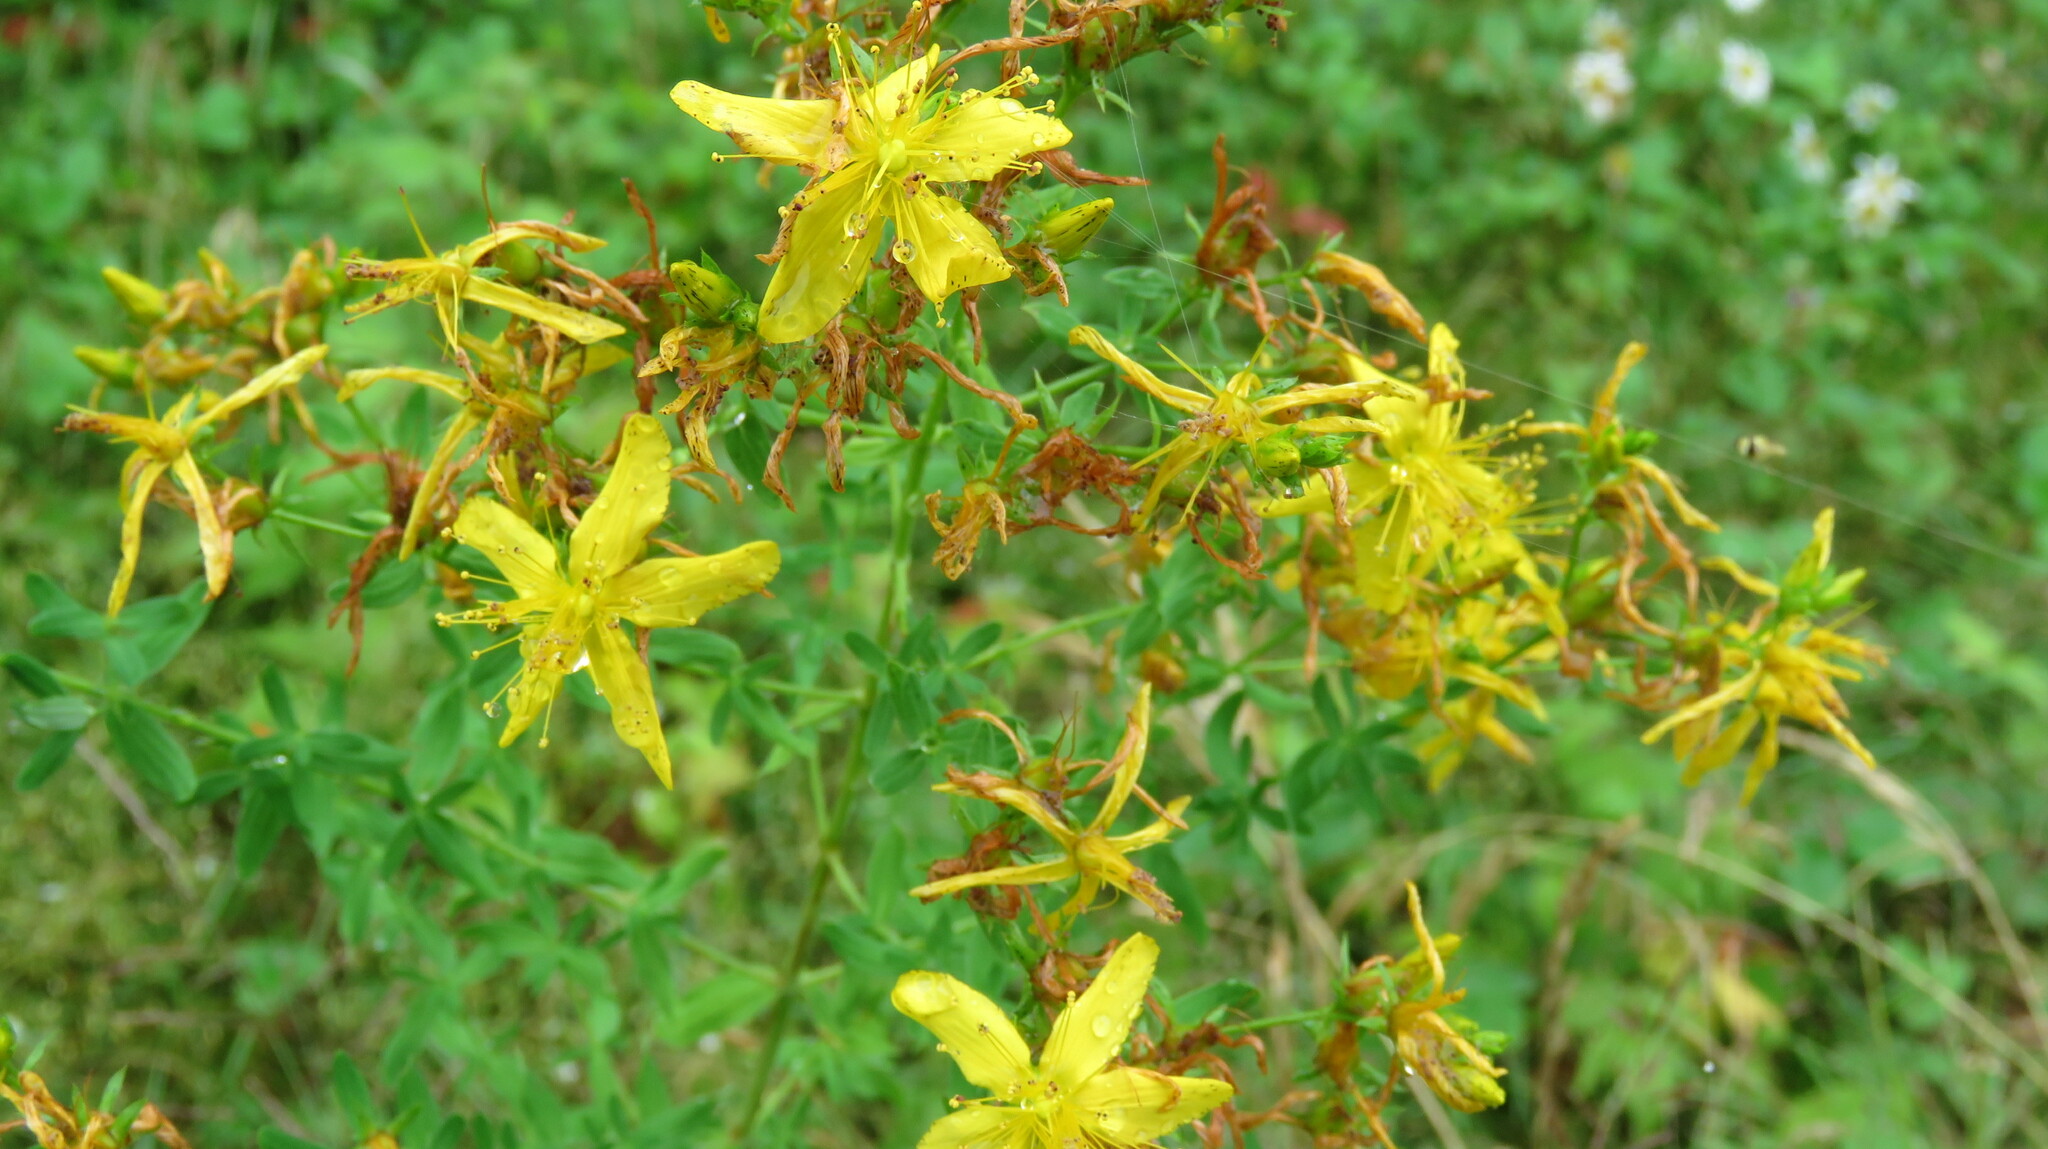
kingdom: Plantae
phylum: Tracheophyta
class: Magnoliopsida
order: Malpighiales
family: Hypericaceae
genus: Hypericum
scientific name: Hypericum perforatum
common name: Common st. johnswort
